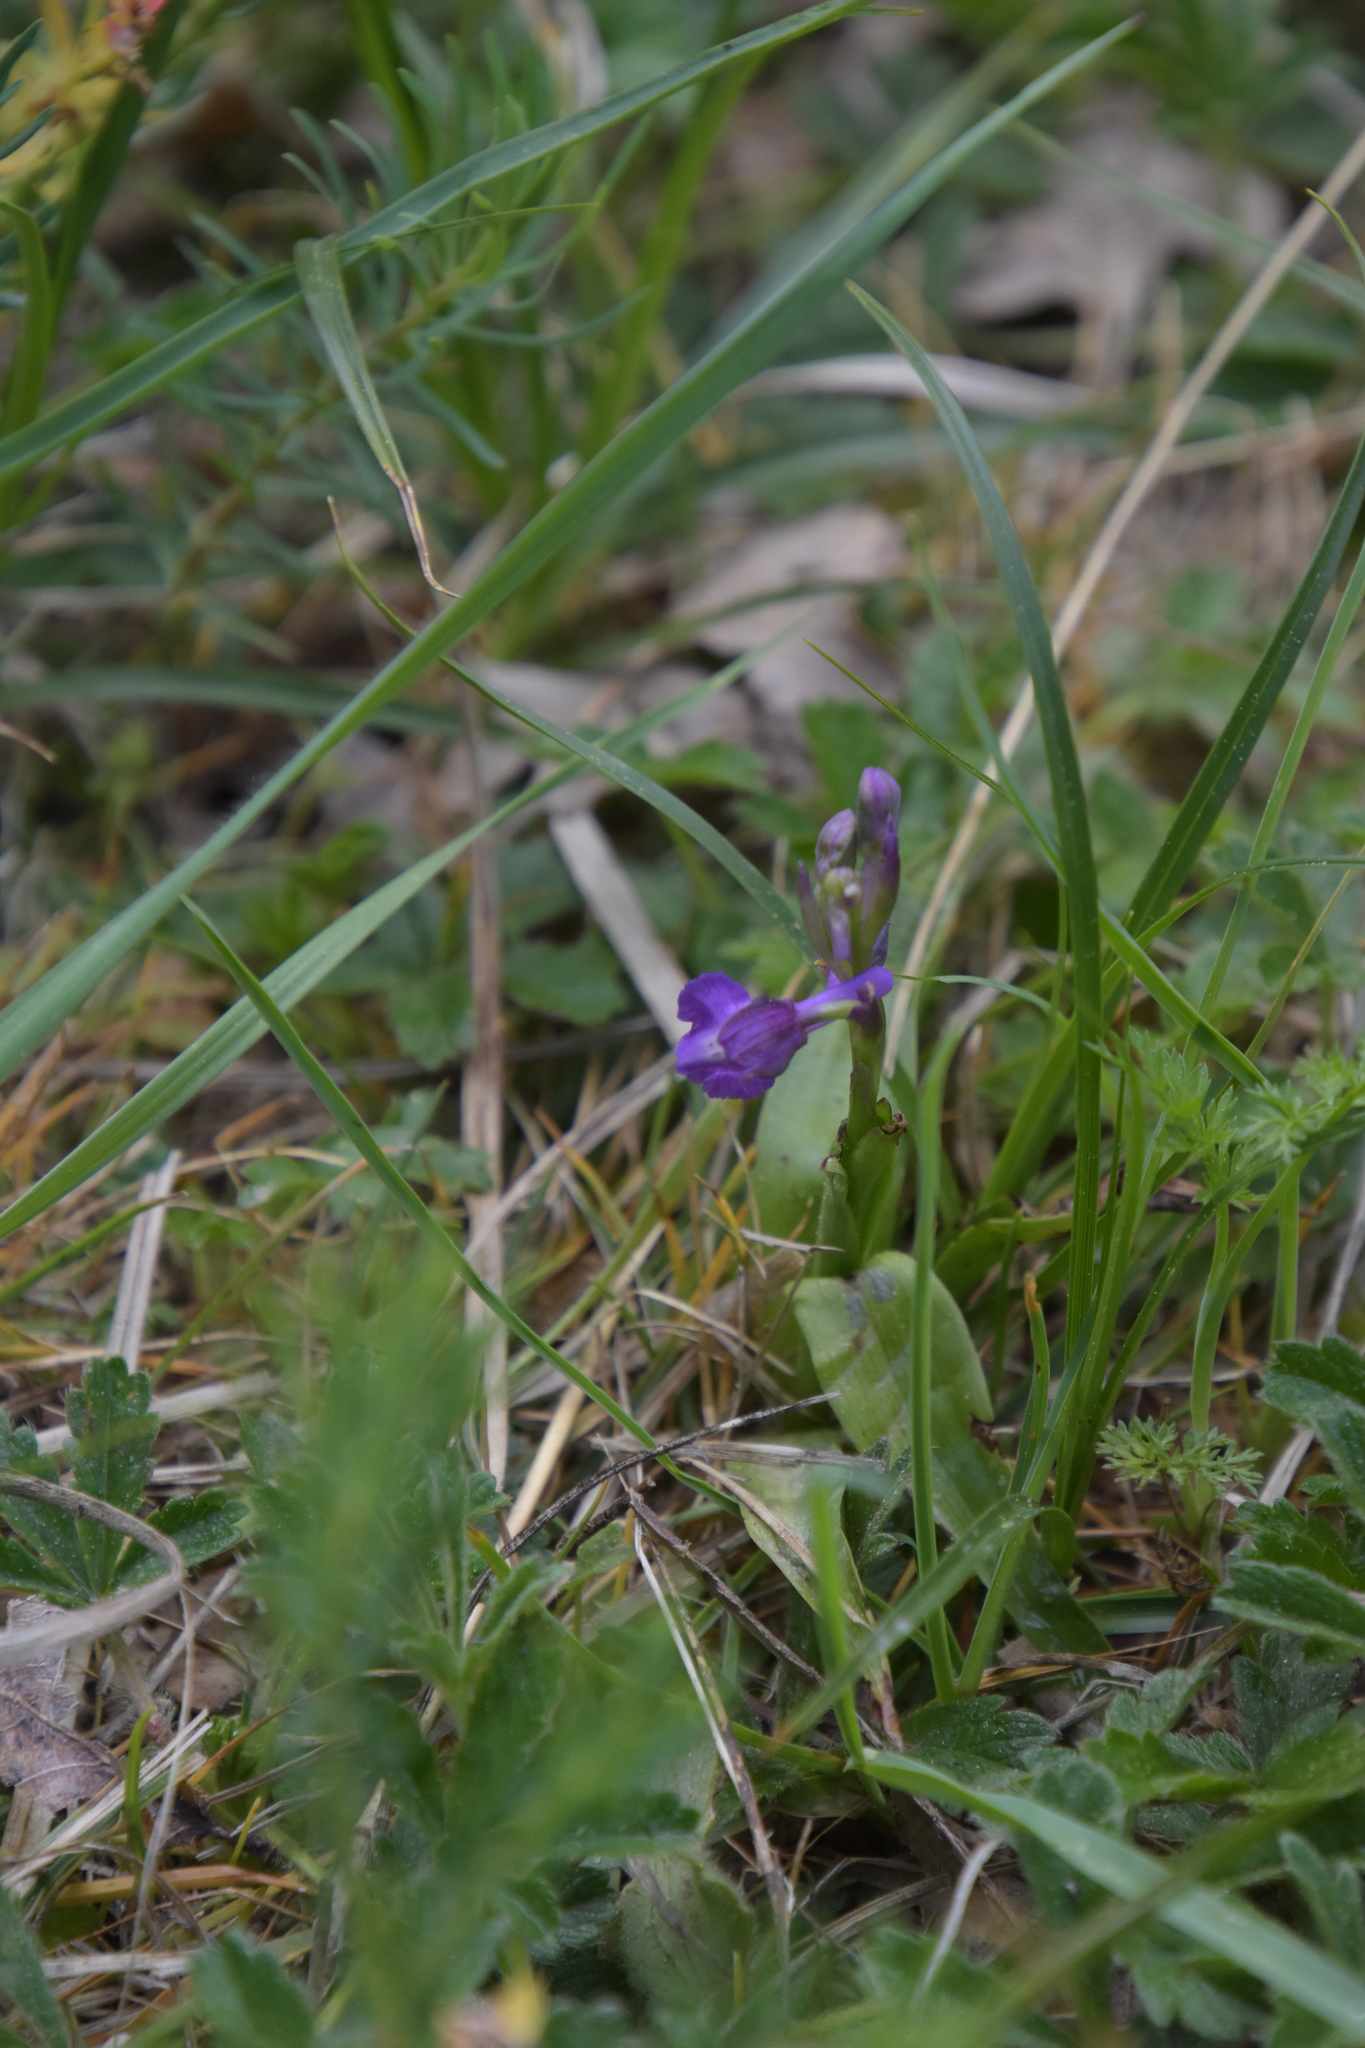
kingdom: Plantae
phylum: Tracheophyta
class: Liliopsida
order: Asparagales
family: Orchidaceae
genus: Anacamptis
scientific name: Anacamptis morio
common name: Green-winged orchid
